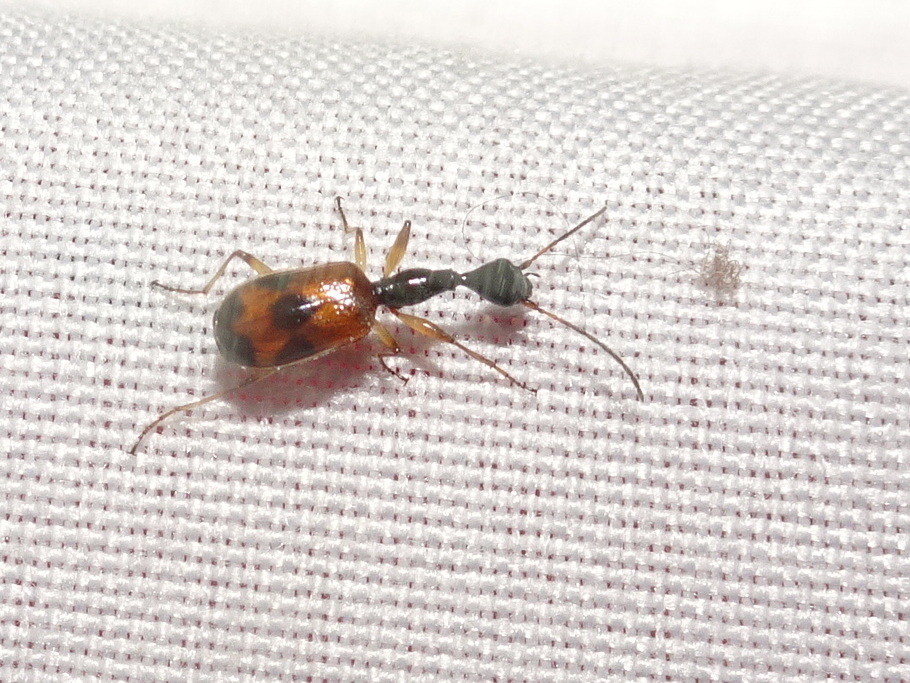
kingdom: Animalia
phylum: Arthropoda
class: Insecta
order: Coleoptera
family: Carabidae
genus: Colliuris
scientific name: Colliuris pensylvanica
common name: Long-necked ground beetle
